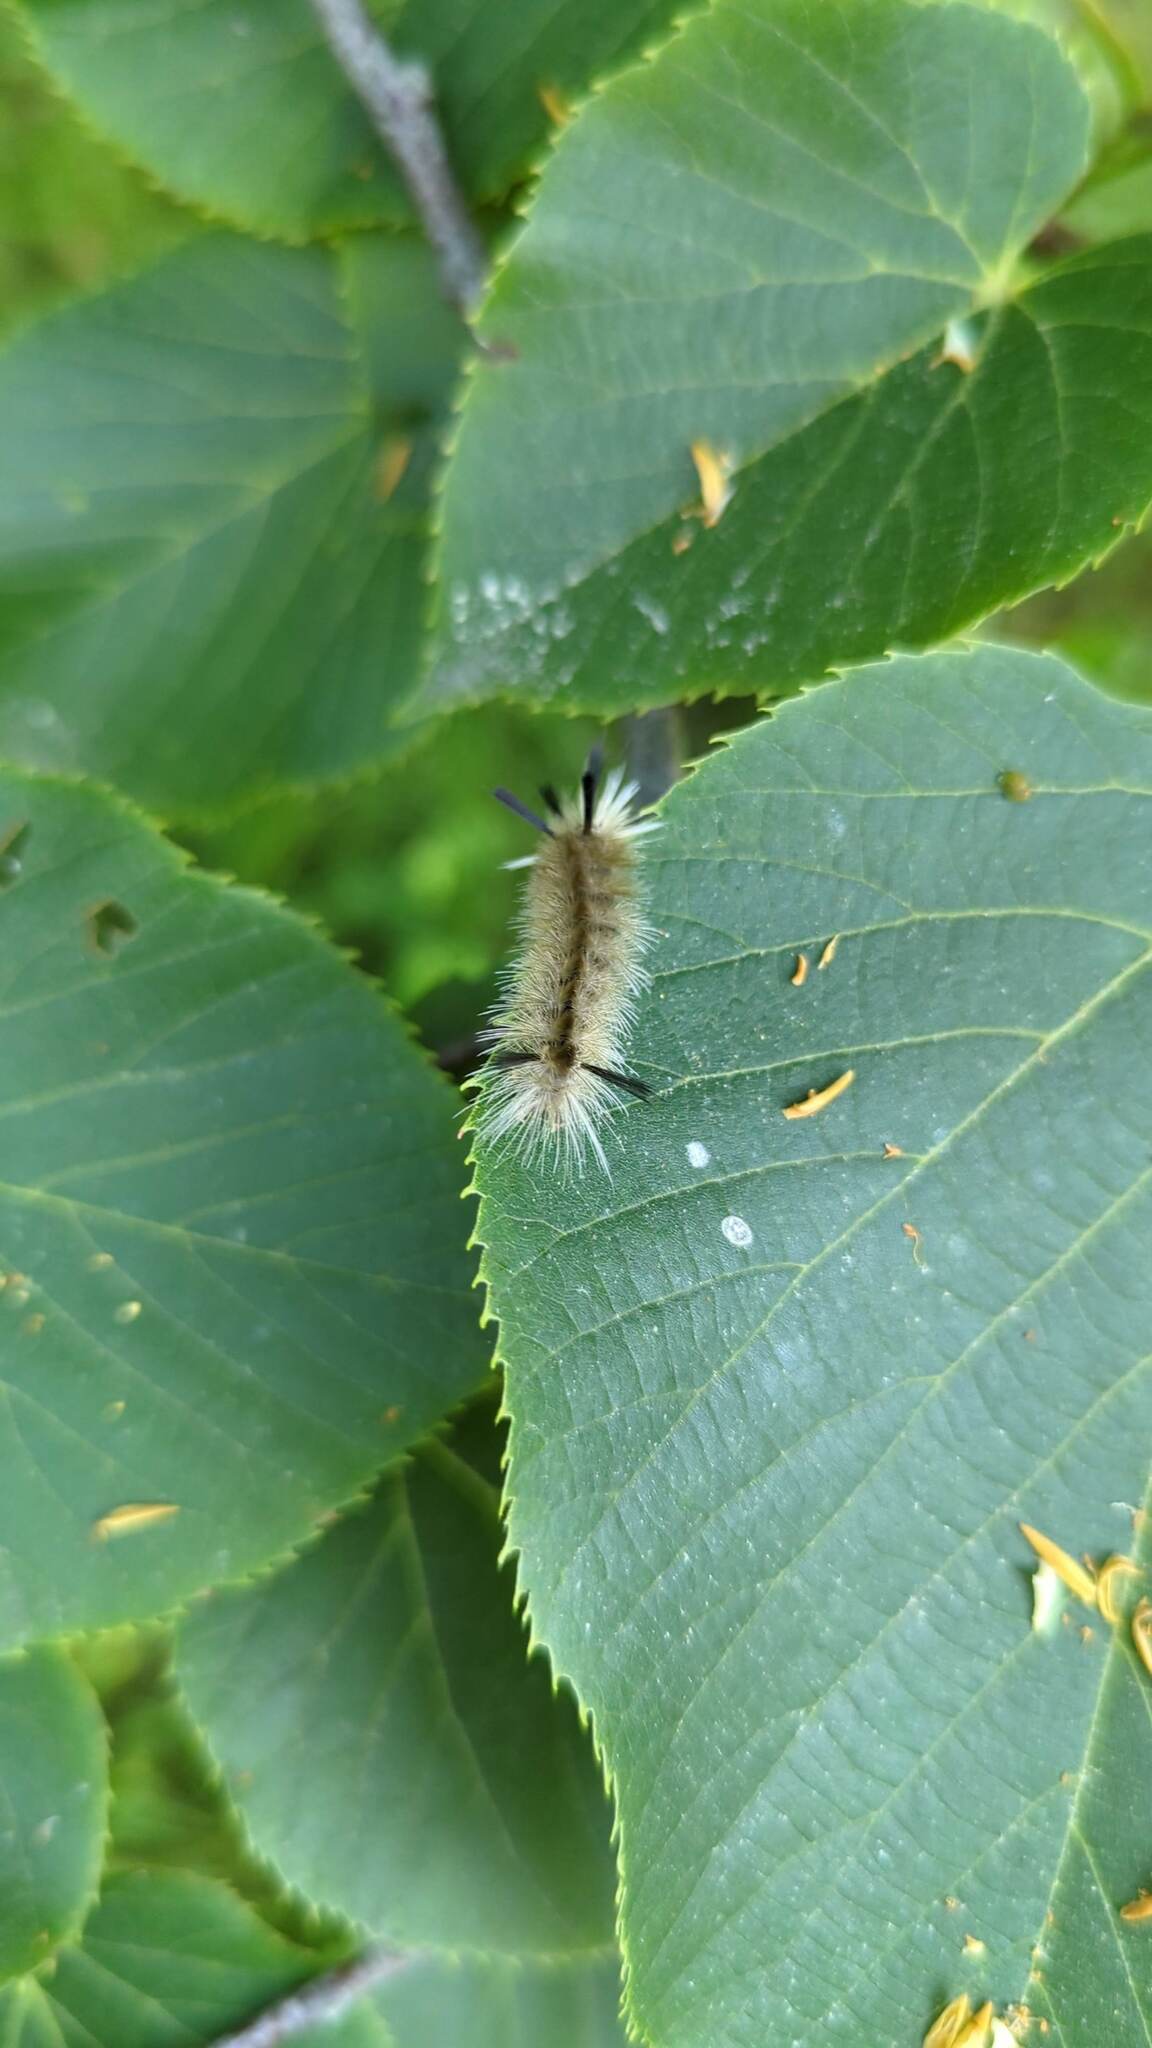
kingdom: Animalia
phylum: Arthropoda
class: Insecta
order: Lepidoptera
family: Erebidae
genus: Halysidota
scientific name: Halysidota tessellaris
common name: Banded tussock moth
